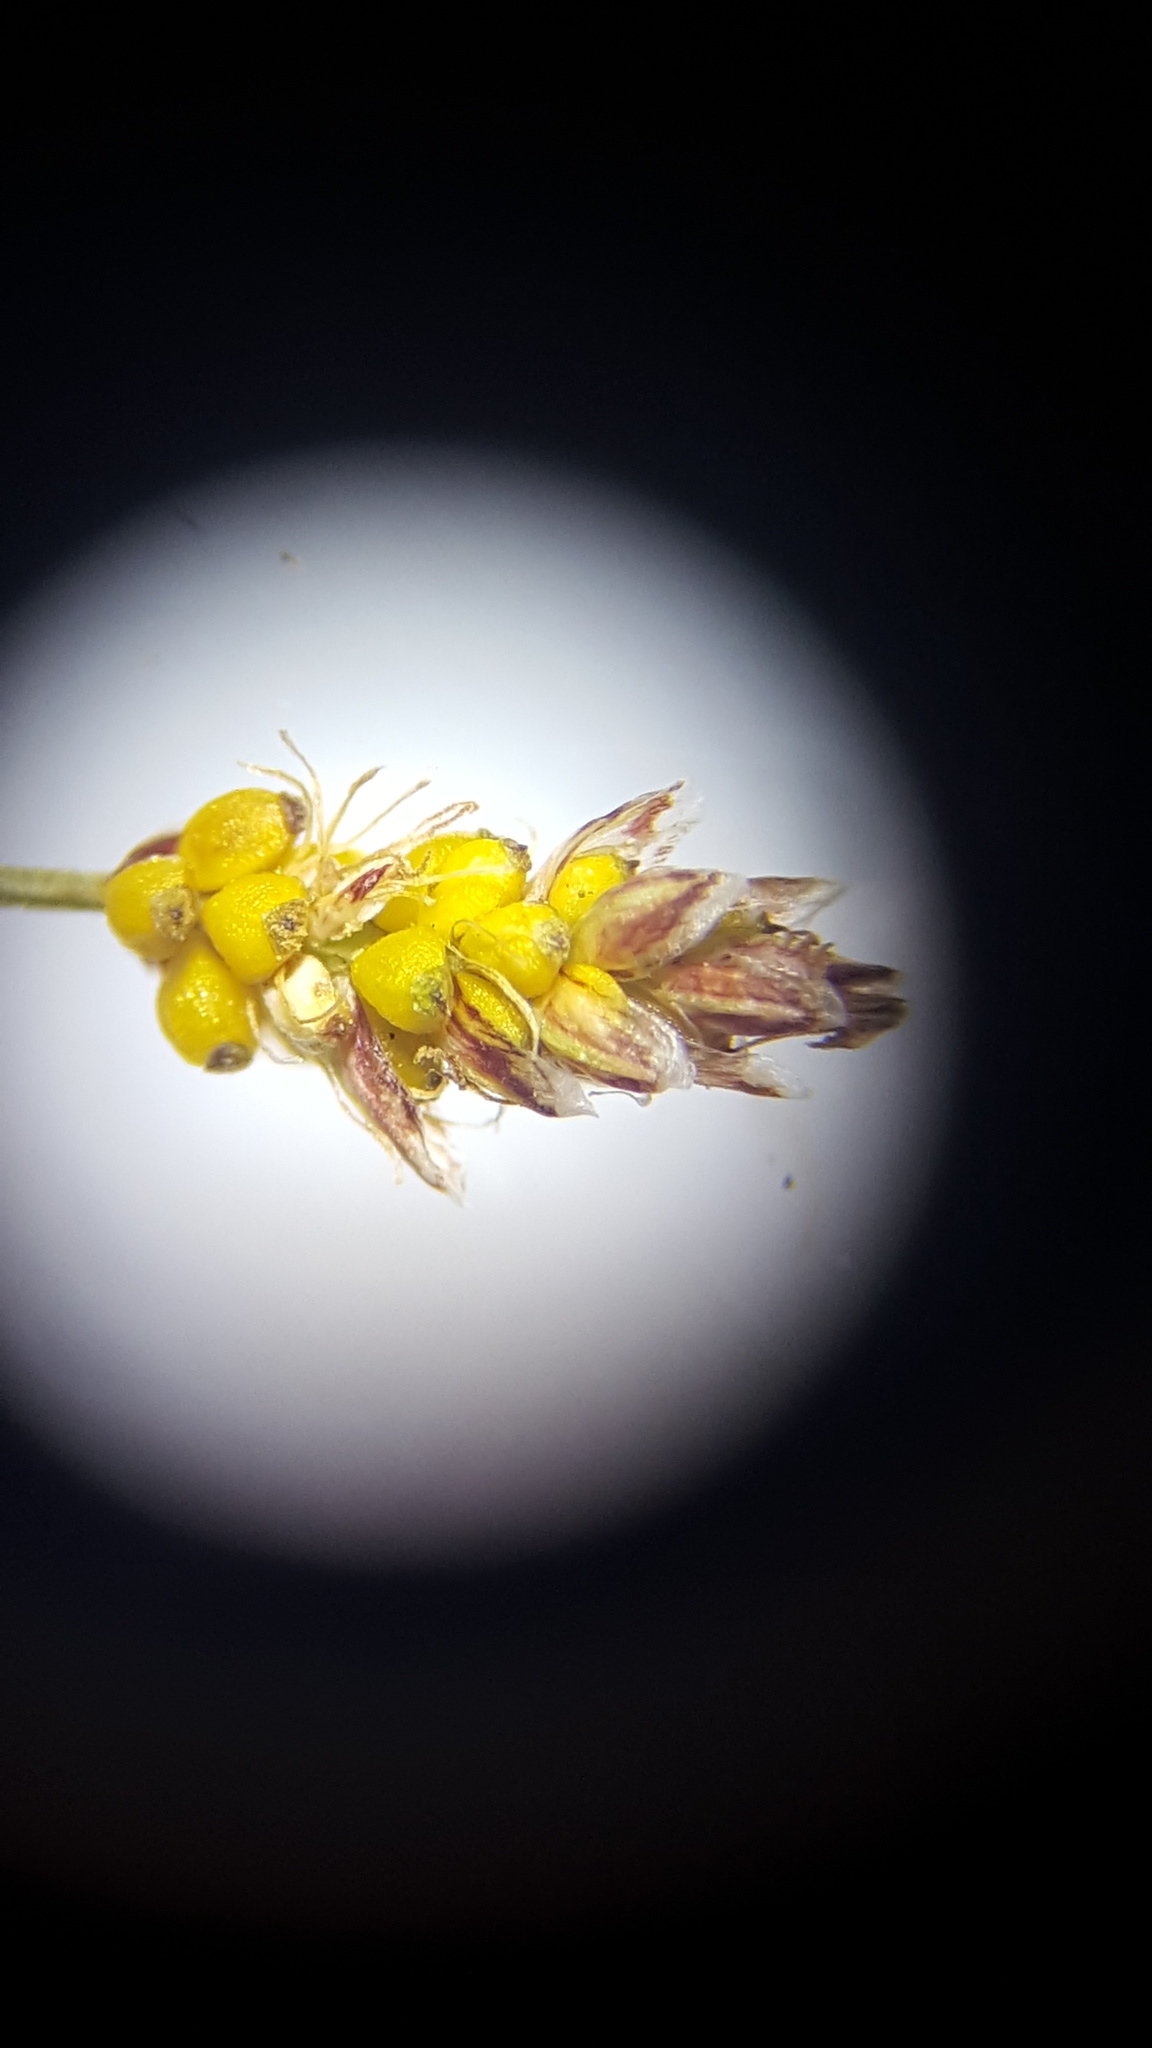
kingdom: Plantae
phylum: Tracheophyta
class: Liliopsida
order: Poales
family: Cyperaceae
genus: Eleocharis
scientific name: Eleocharis nitida
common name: Neat spikerush
